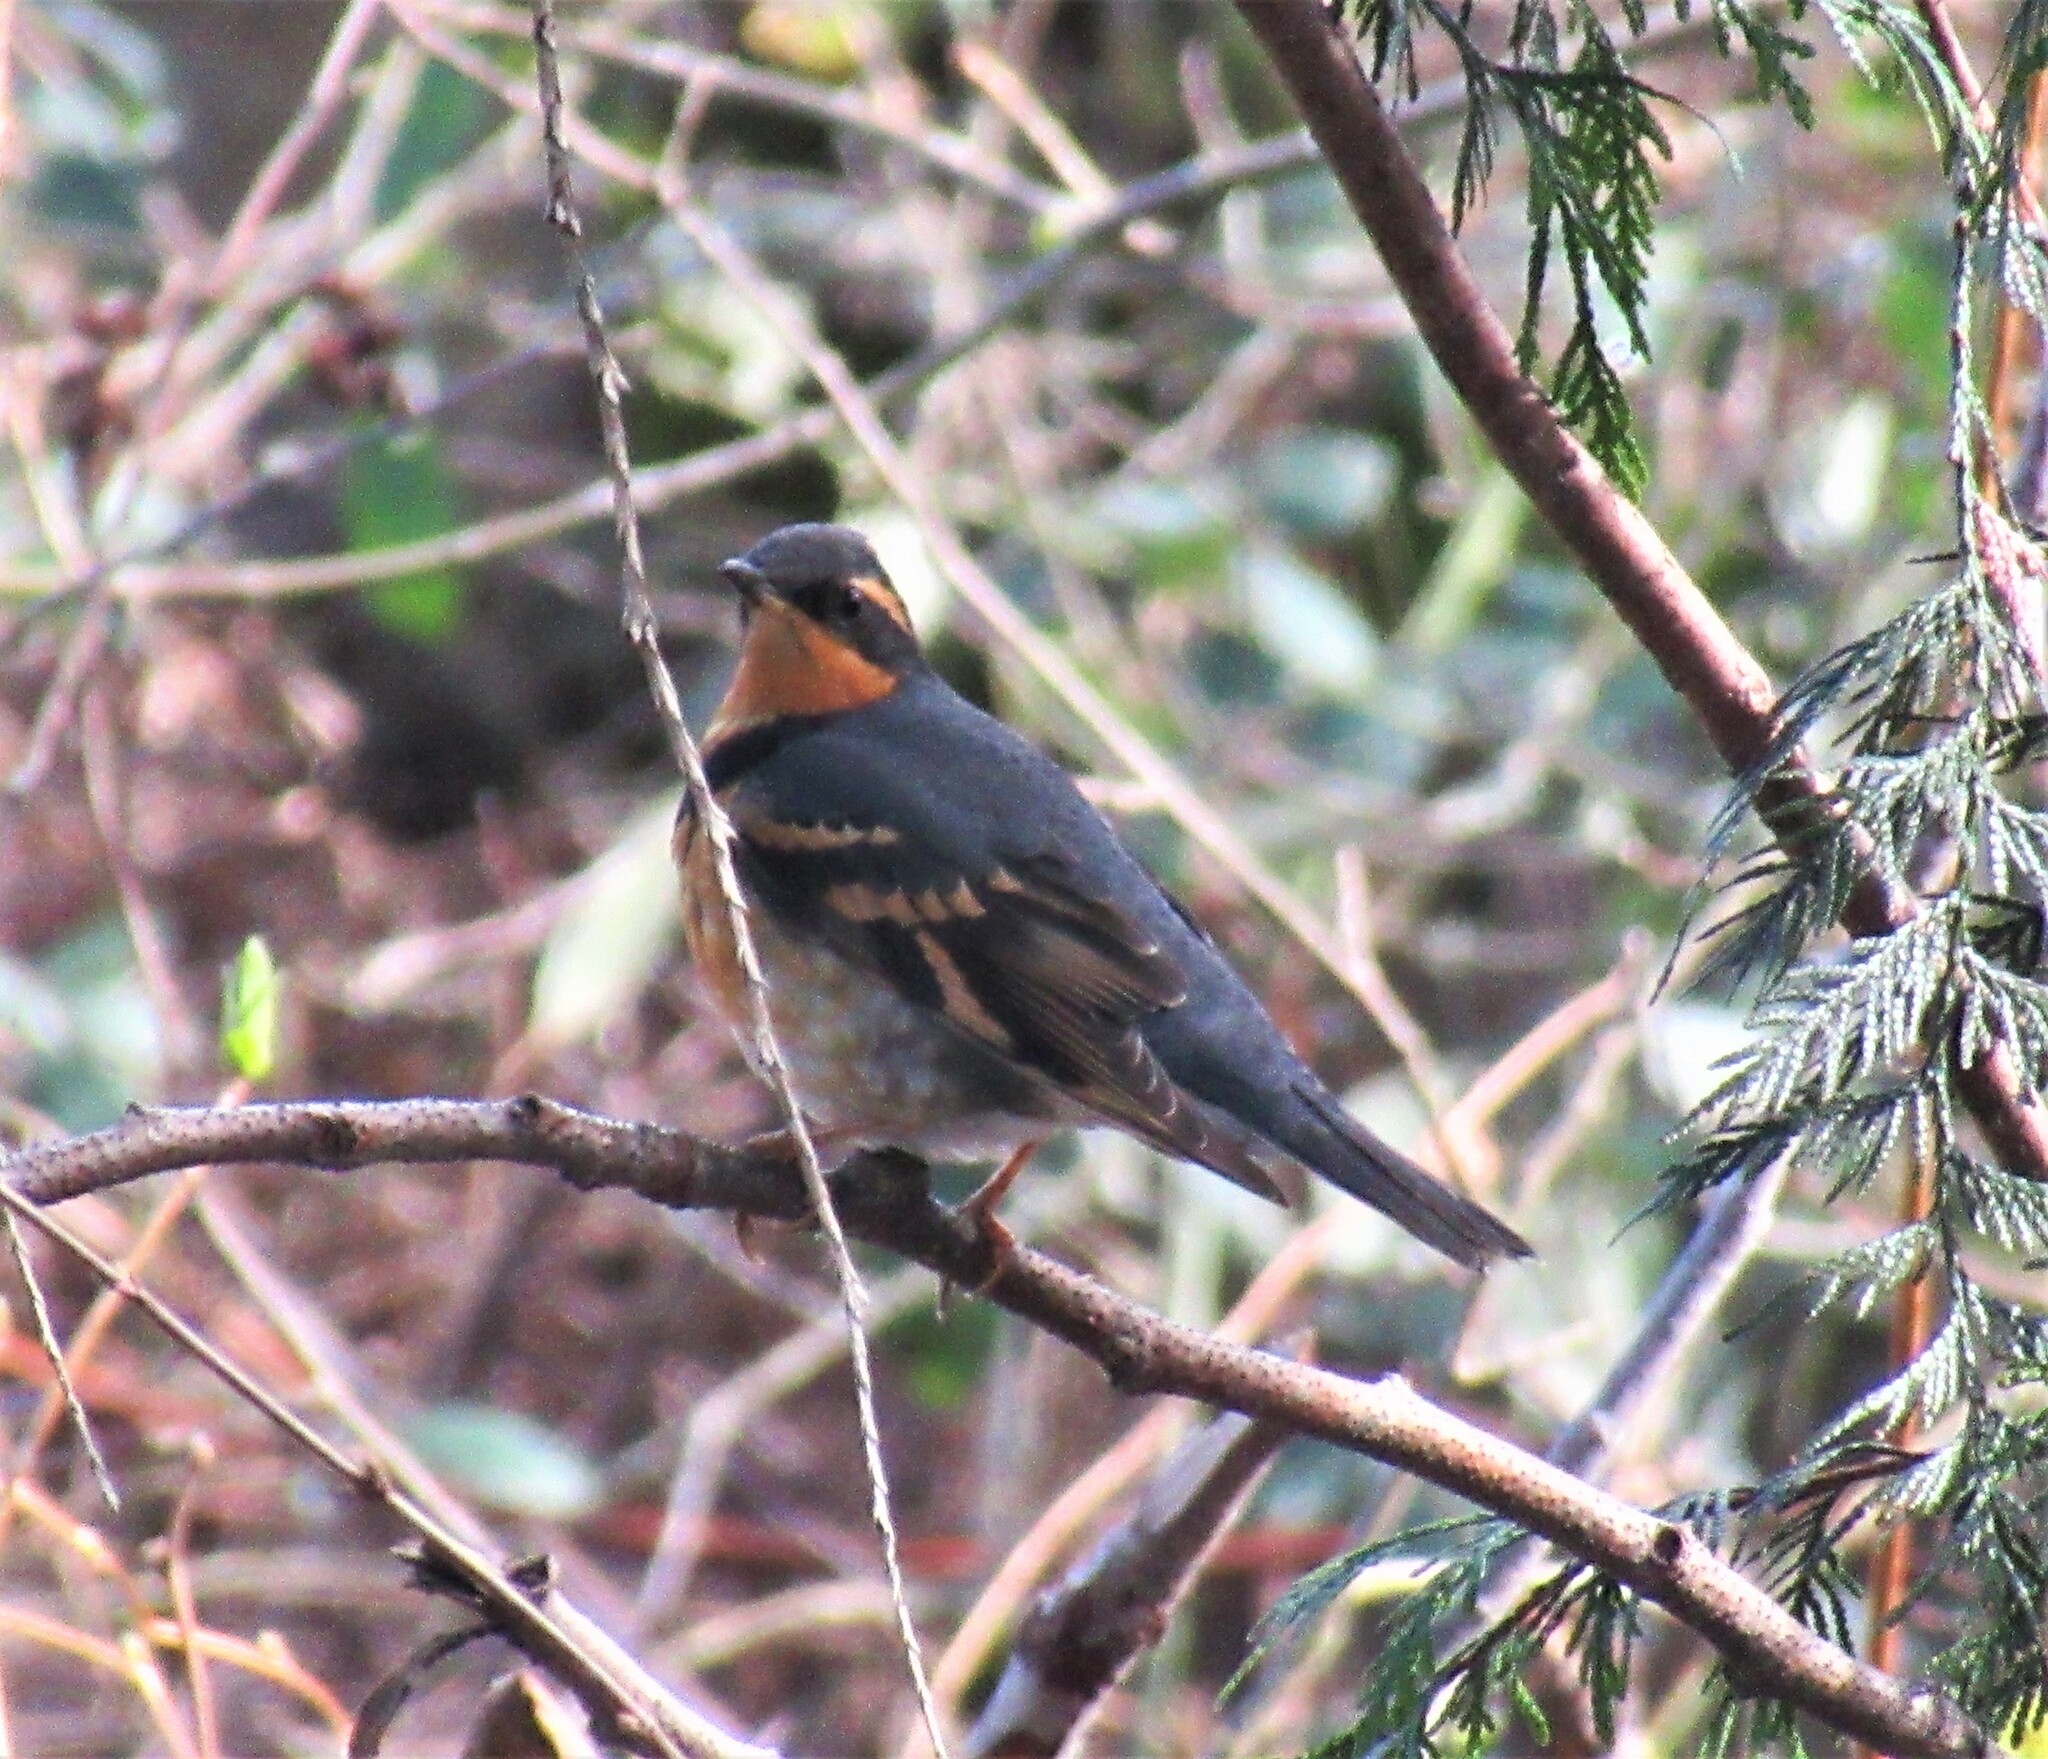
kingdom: Animalia
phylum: Chordata
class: Aves
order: Passeriformes
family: Turdidae
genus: Ixoreus
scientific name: Ixoreus naevius
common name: Varied thrush
